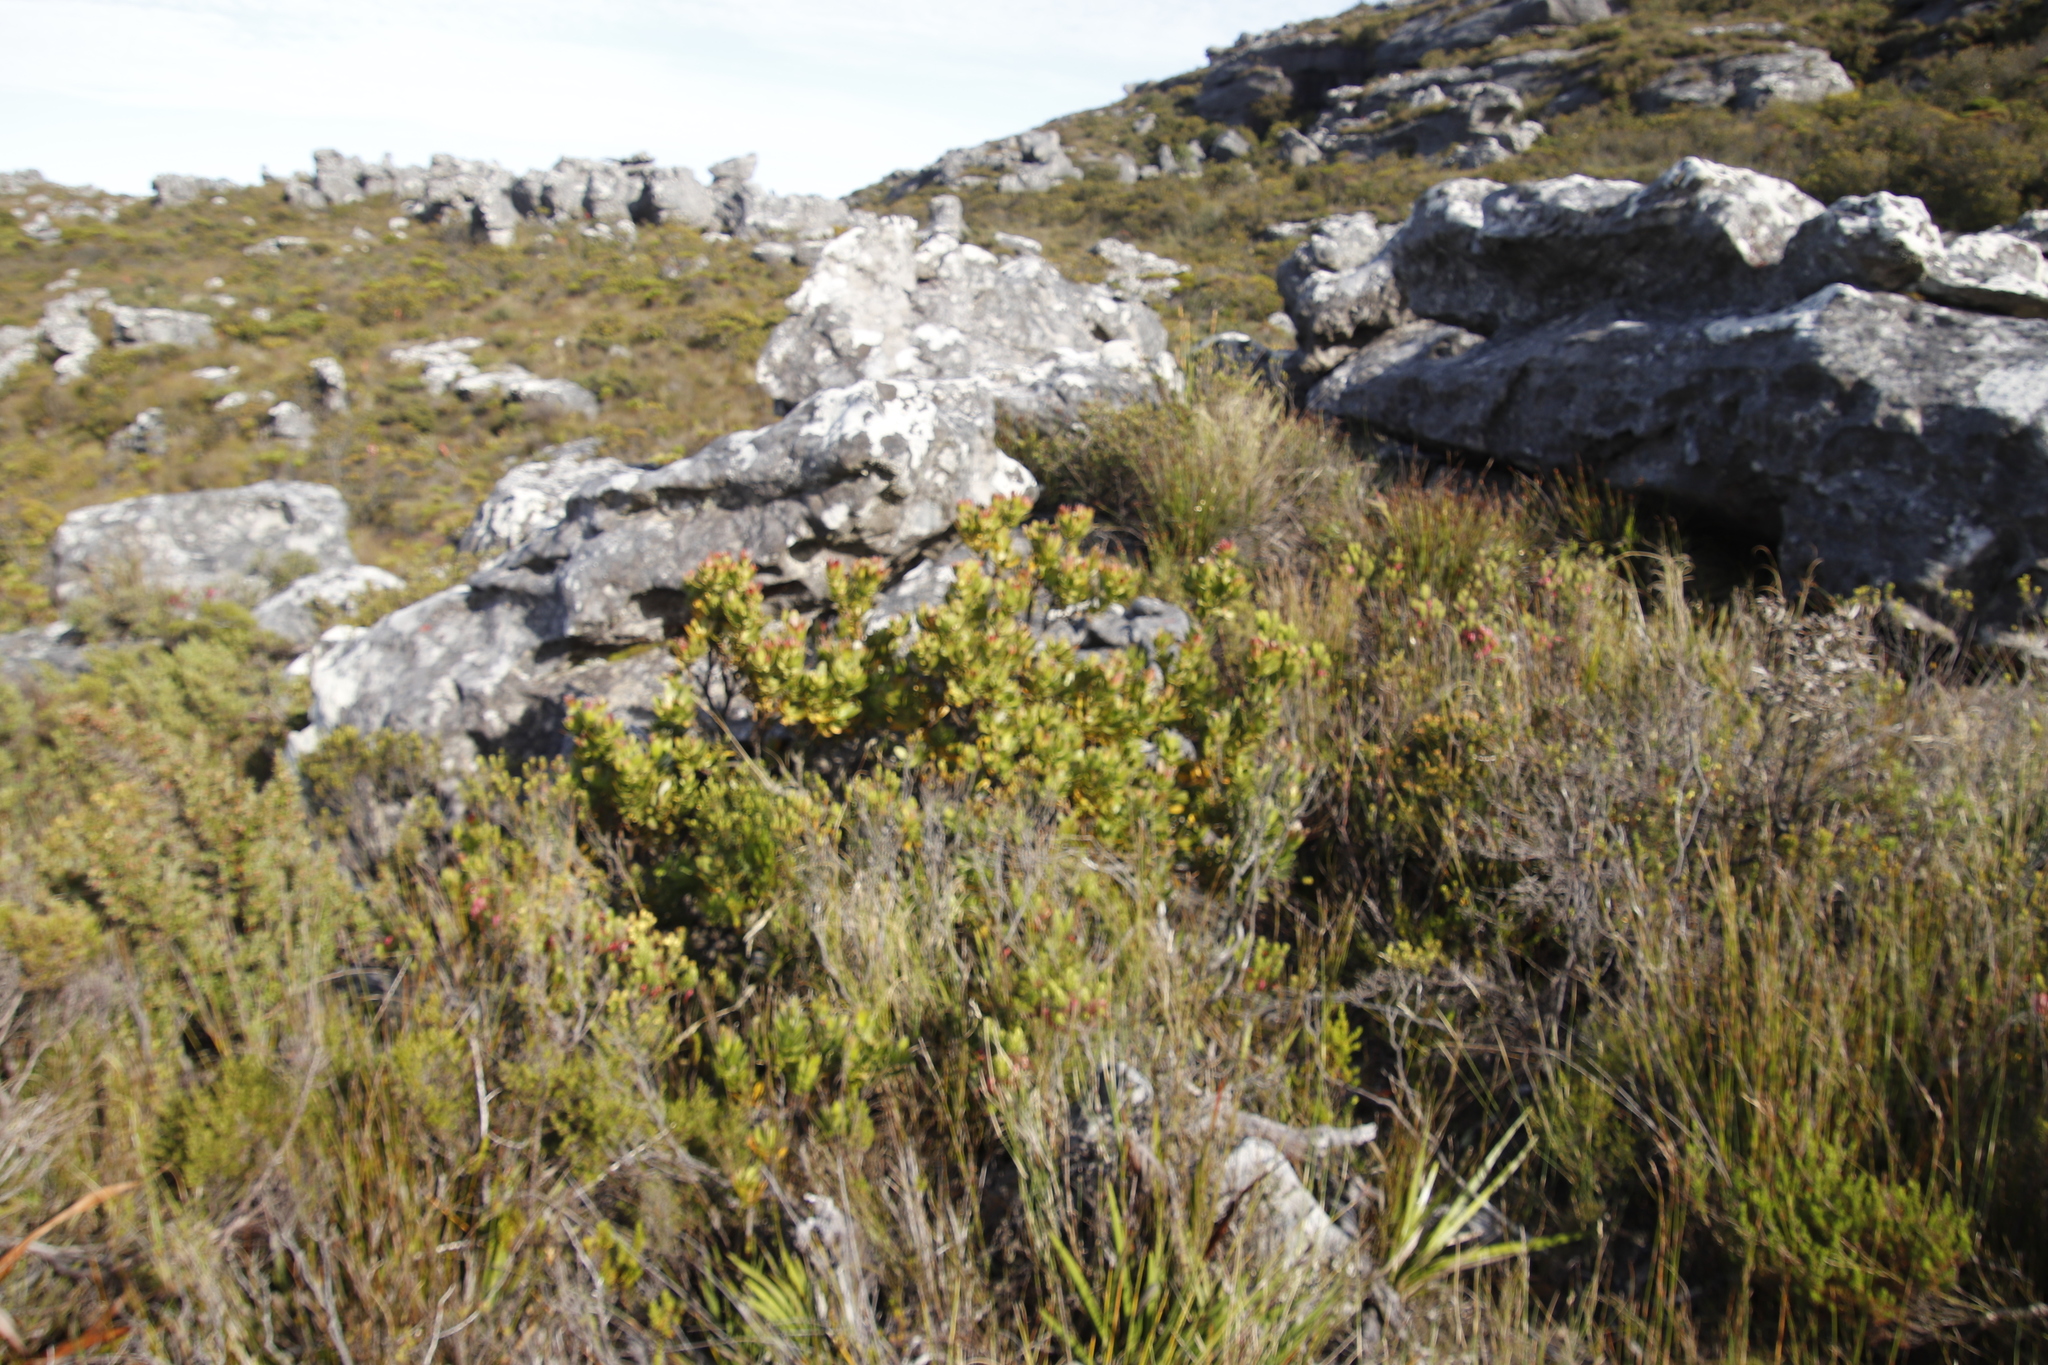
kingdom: Plantae
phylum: Tracheophyta
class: Magnoliopsida
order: Proteales
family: Proteaceae
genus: Leucadendron
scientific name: Leucadendron strobilinum
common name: Mountain rose
